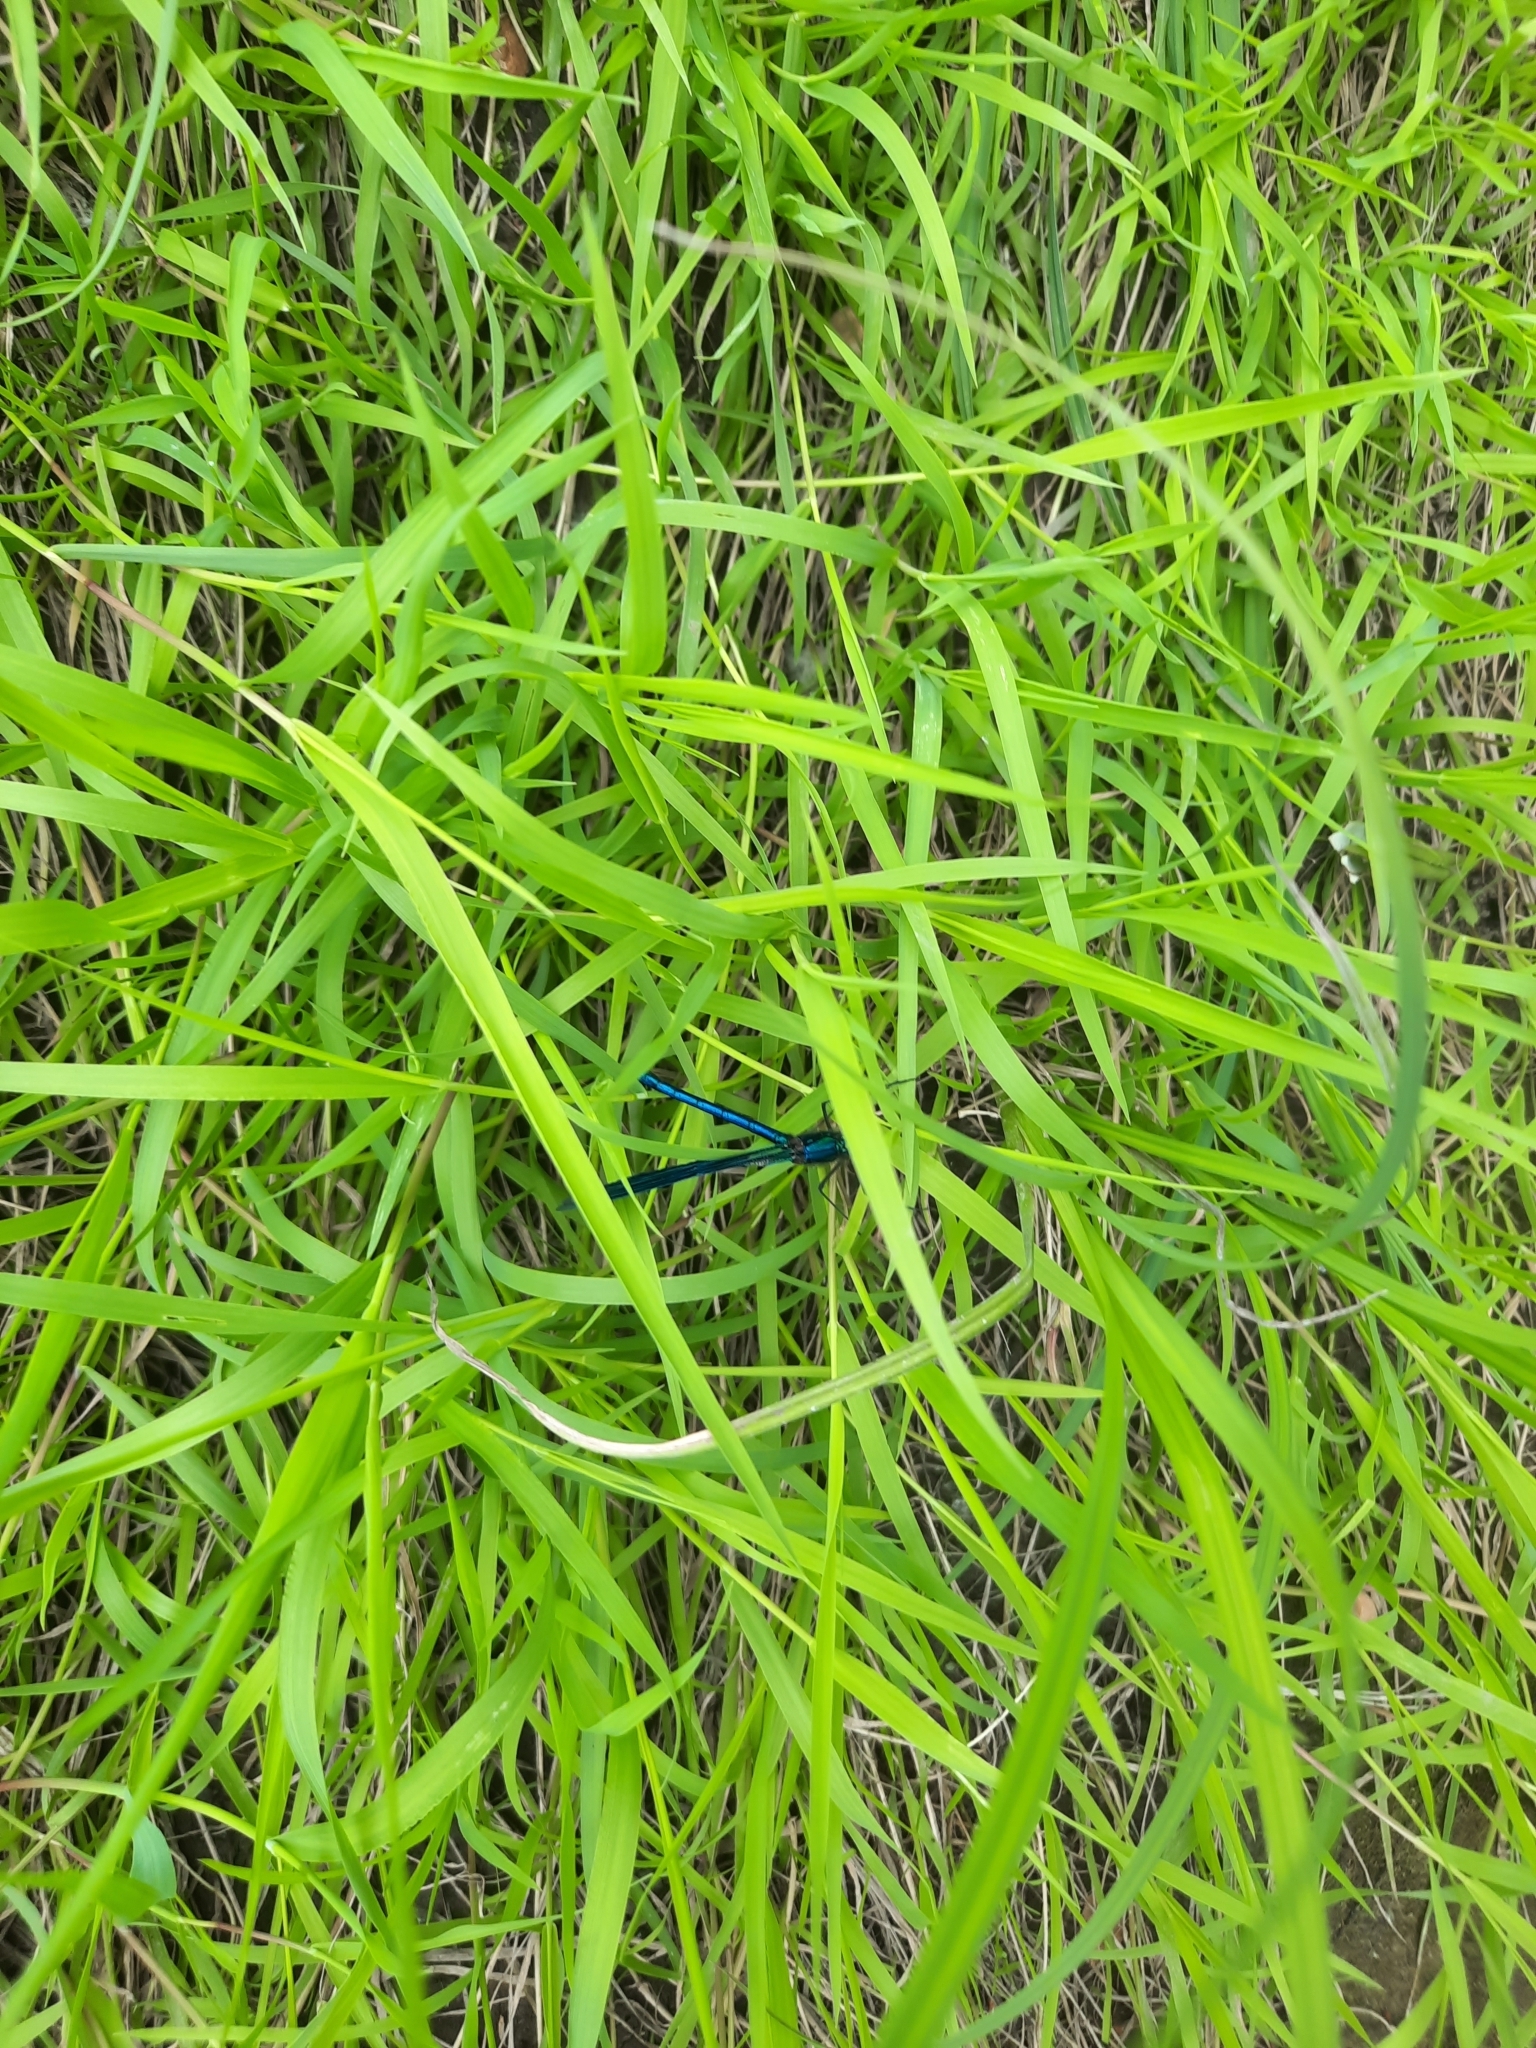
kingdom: Animalia
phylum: Arthropoda
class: Insecta
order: Odonata
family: Calopterygidae
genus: Calopteryx
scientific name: Calopteryx splendens
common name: Banded demoiselle
